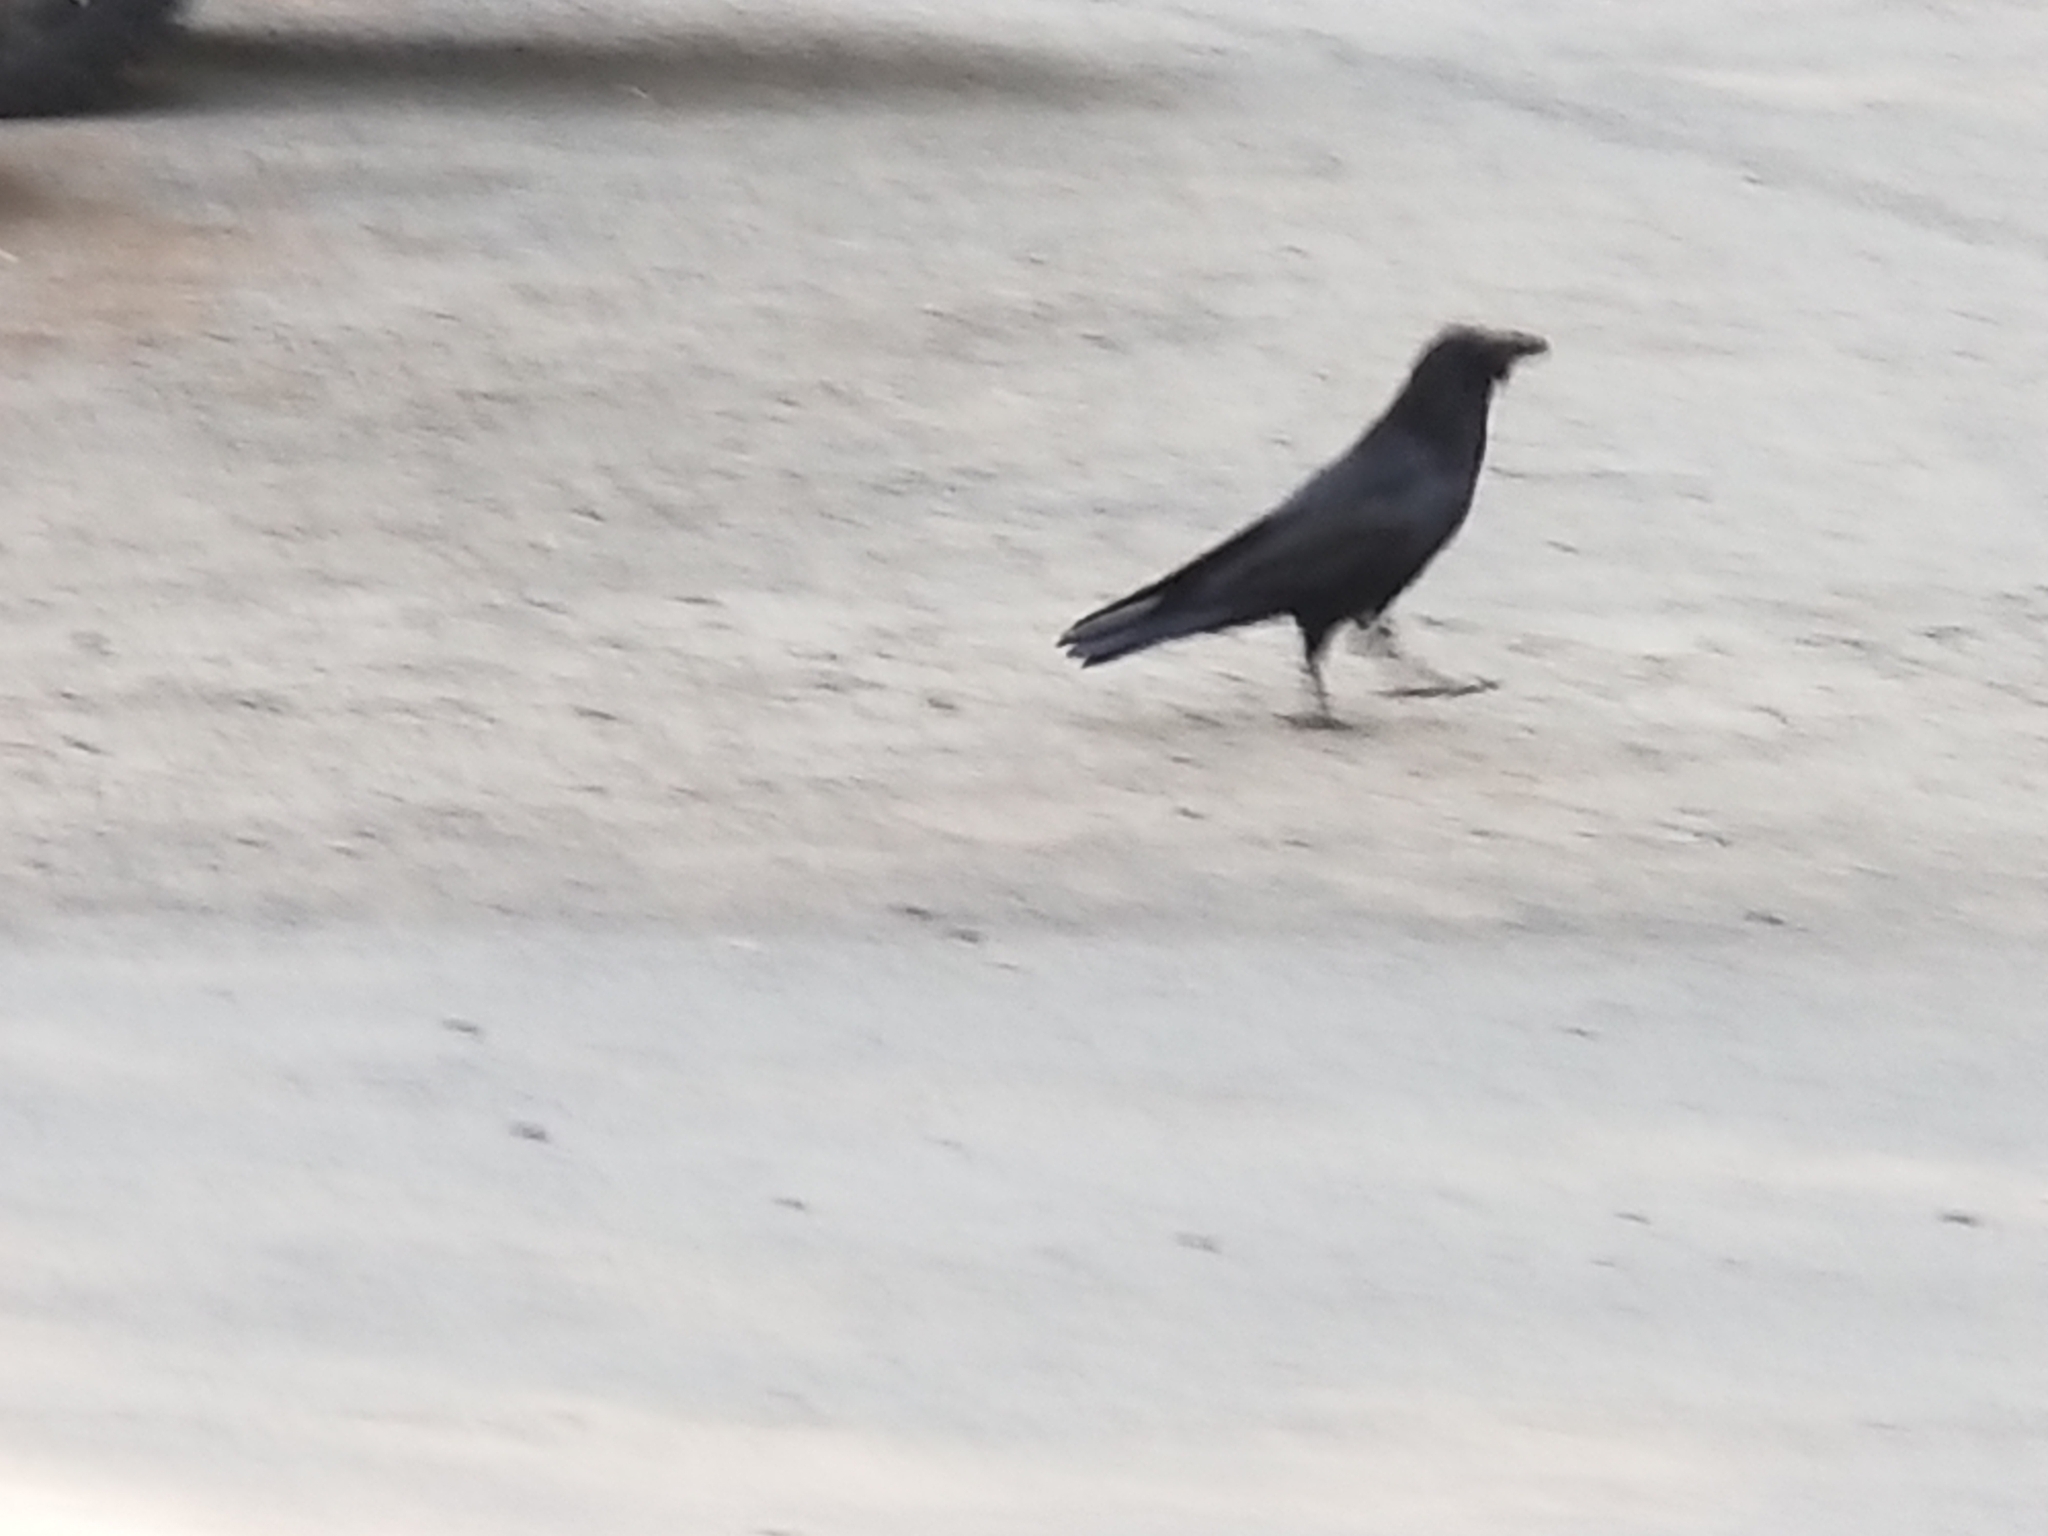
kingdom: Animalia
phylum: Chordata
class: Aves
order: Passeriformes
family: Corvidae
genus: Corvus
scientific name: Corvus corax
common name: Common raven
